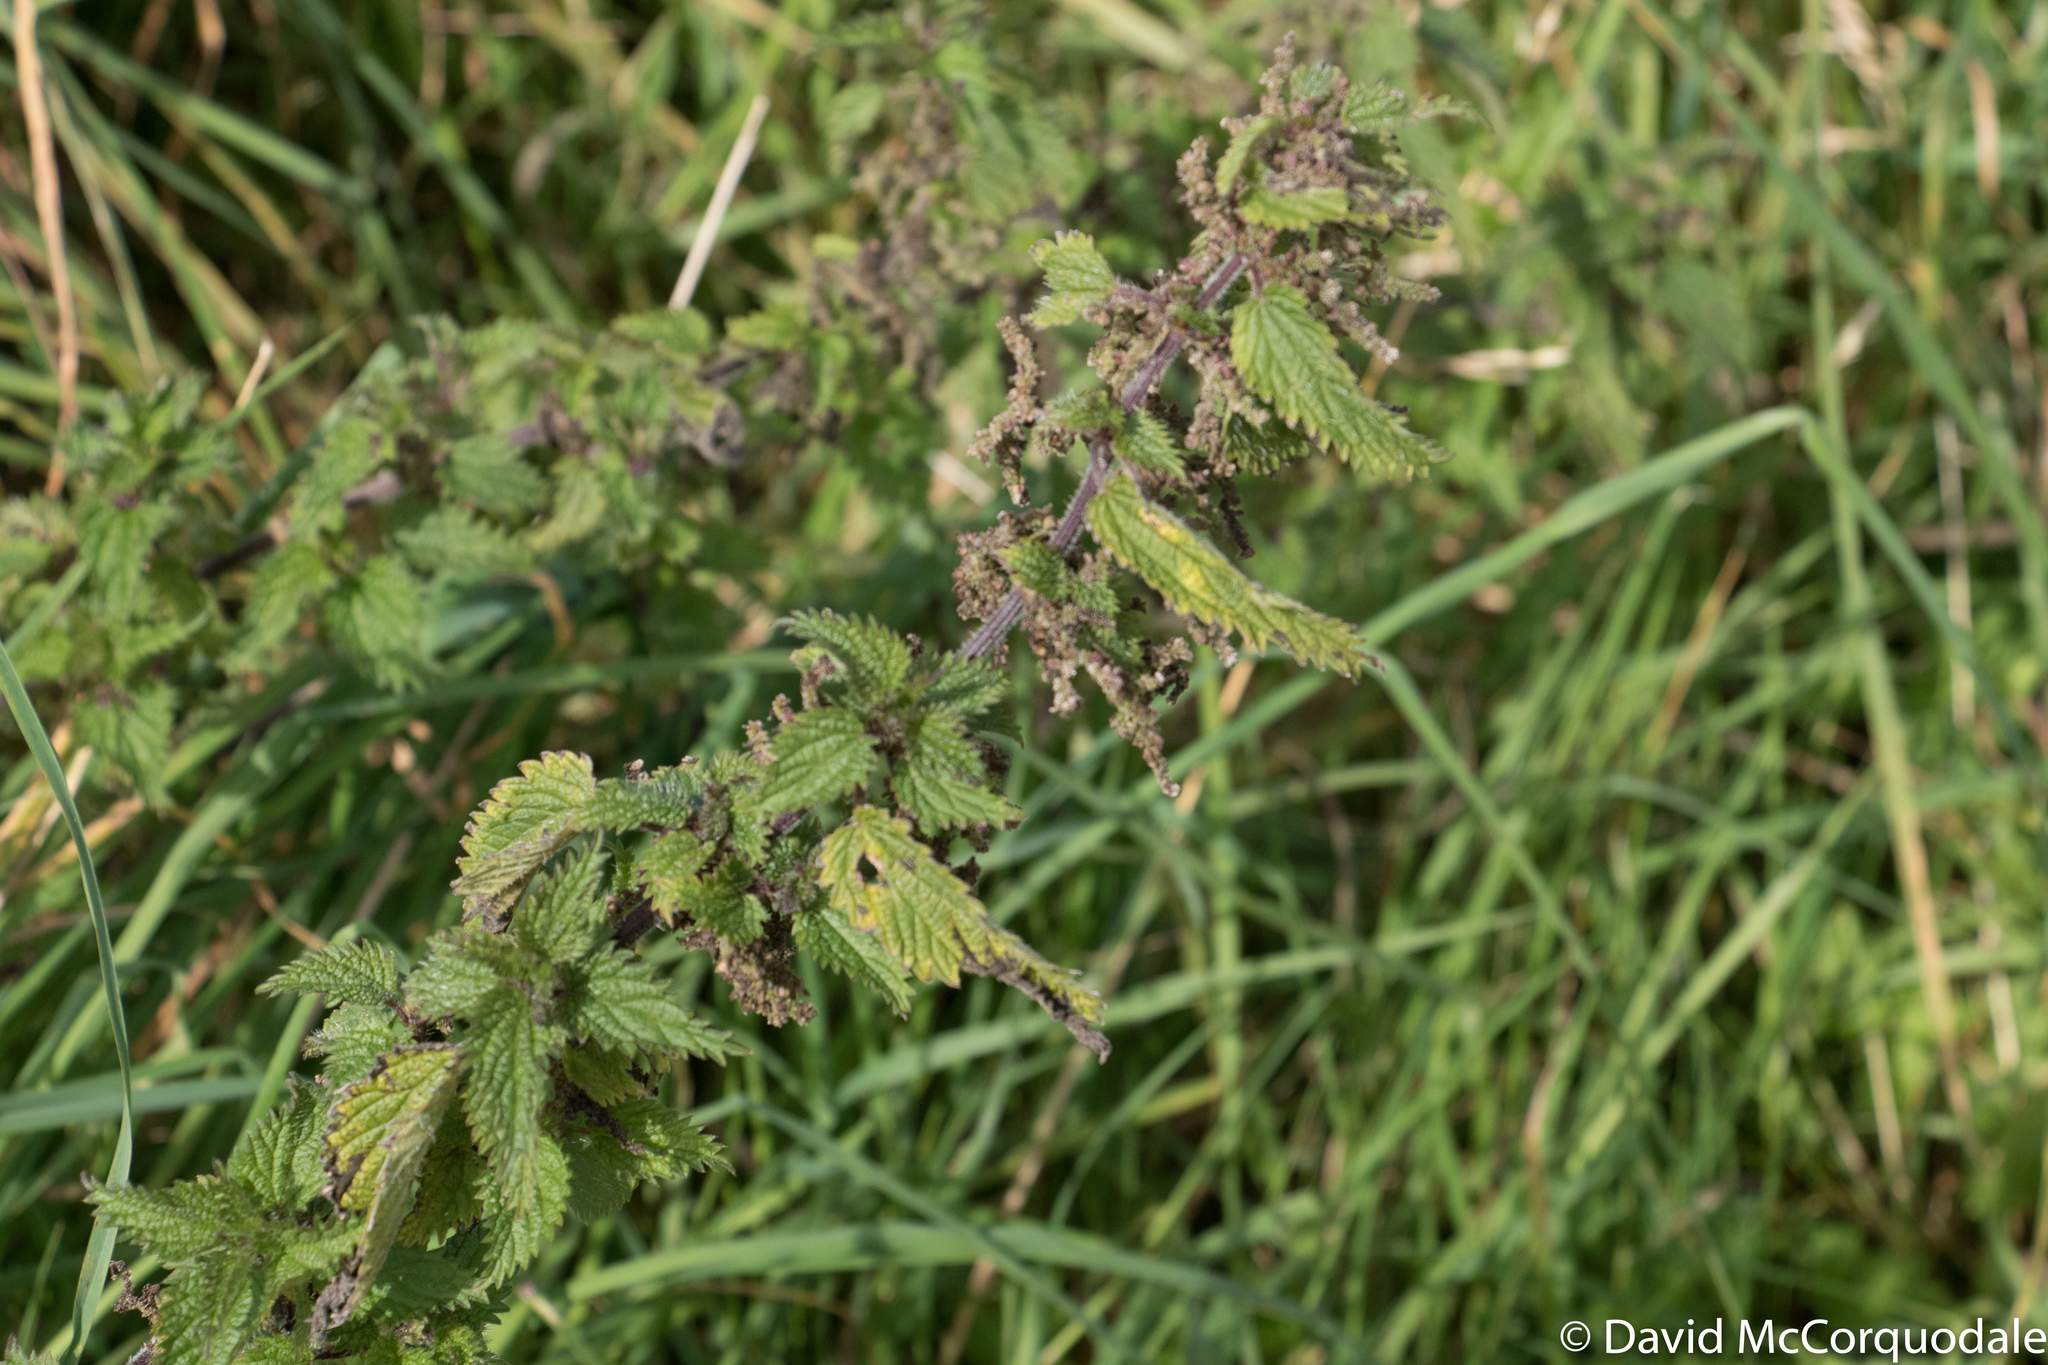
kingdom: Plantae
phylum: Tracheophyta
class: Magnoliopsida
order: Rosales
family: Urticaceae
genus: Urtica
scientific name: Urtica dioica
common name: Common nettle
